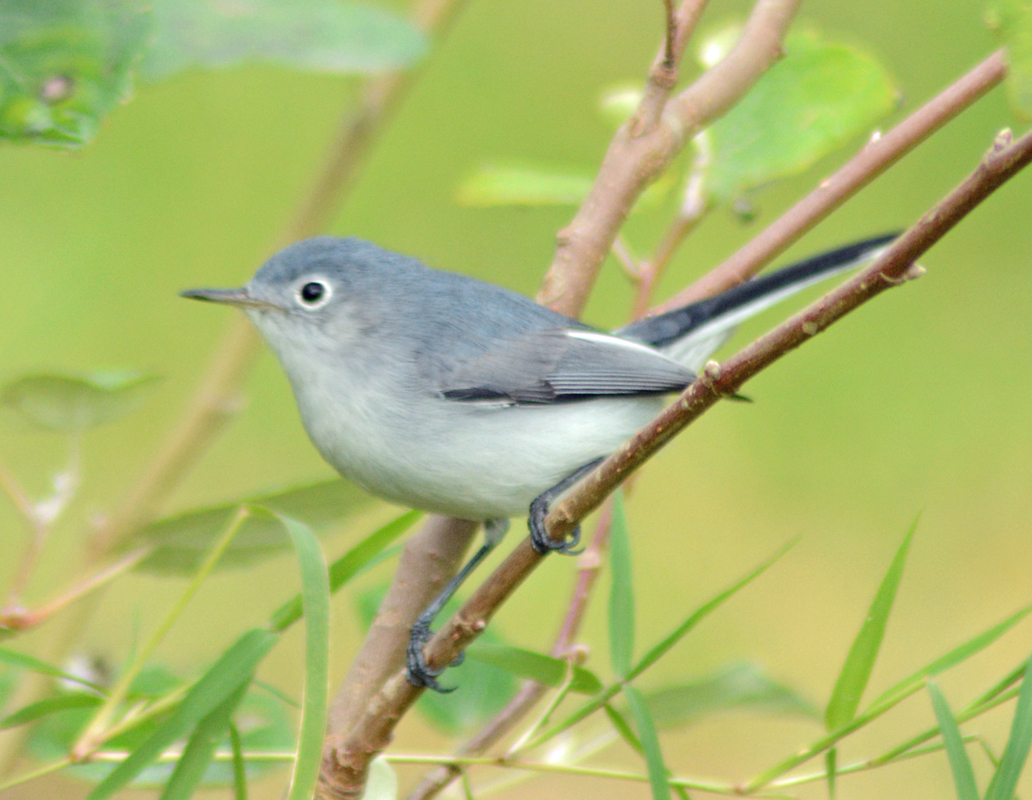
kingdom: Animalia
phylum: Chordata
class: Aves
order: Passeriformes
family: Polioptilidae
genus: Polioptila
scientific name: Polioptila caerulea
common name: Blue-gray gnatcatcher
